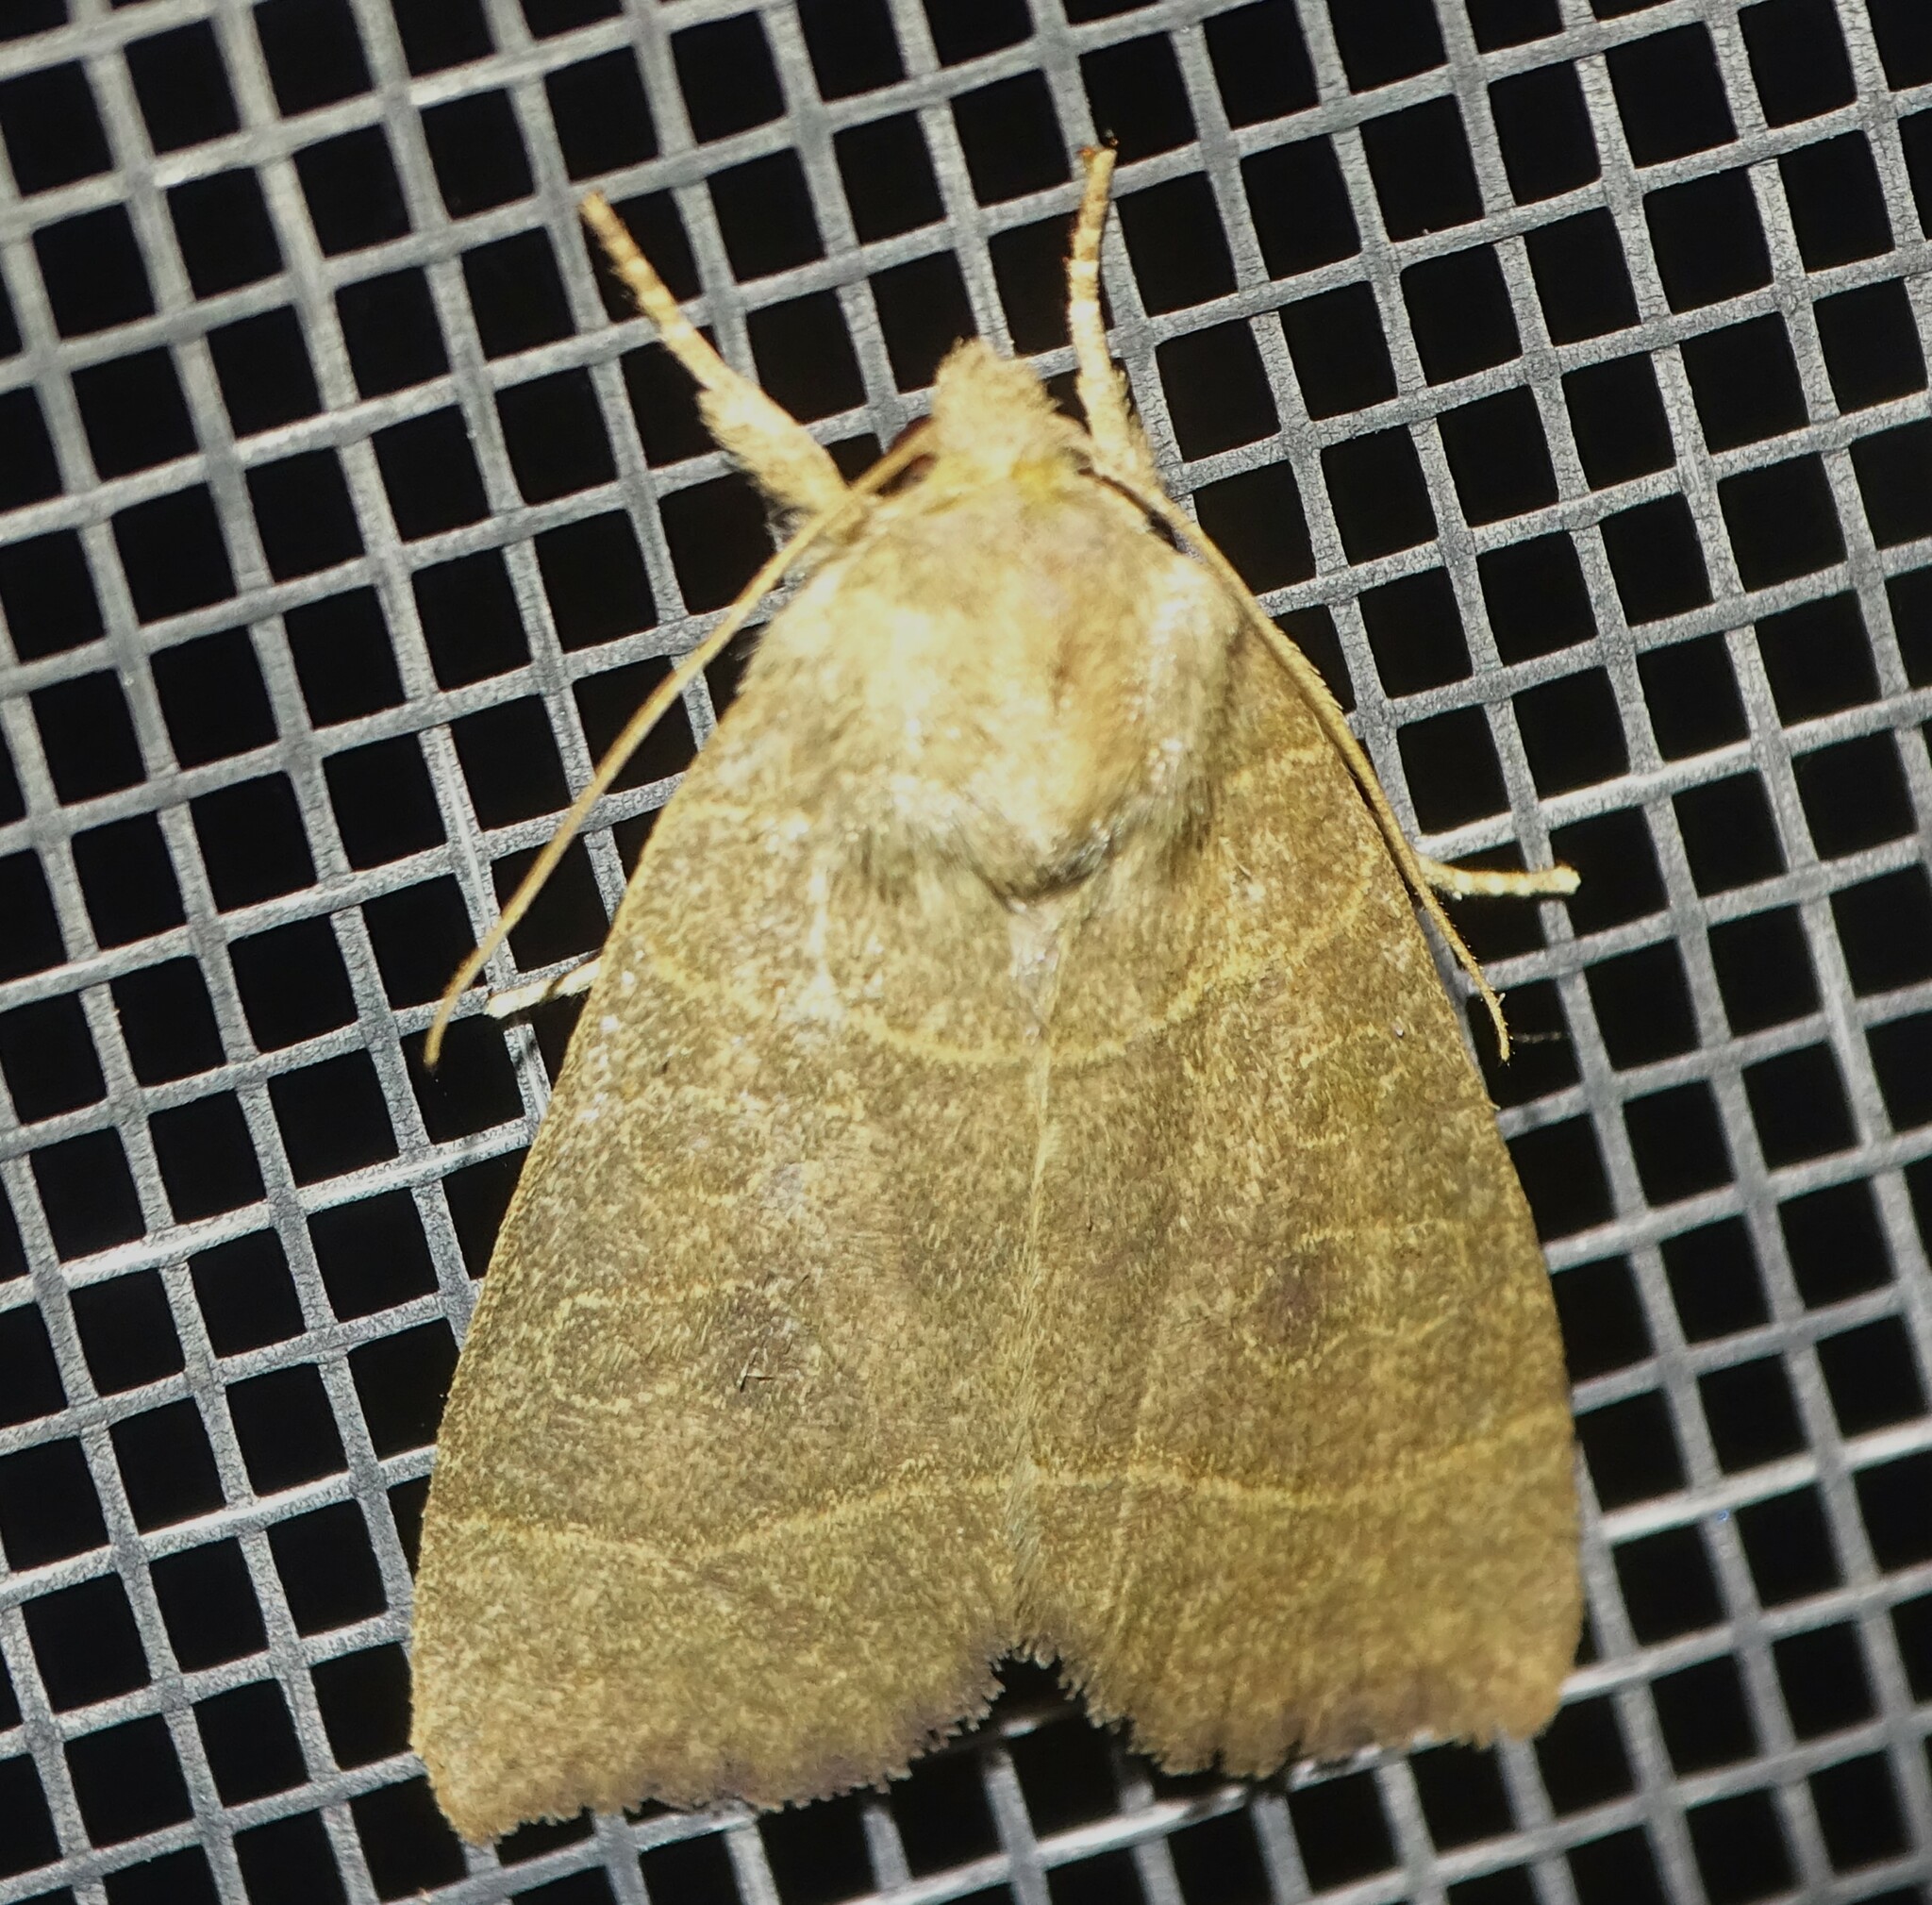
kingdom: Animalia
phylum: Arthropoda
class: Insecta
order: Lepidoptera
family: Noctuidae
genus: Ipimorpha
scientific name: Ipimorpha pleonectusa
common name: Even-lined sallow
